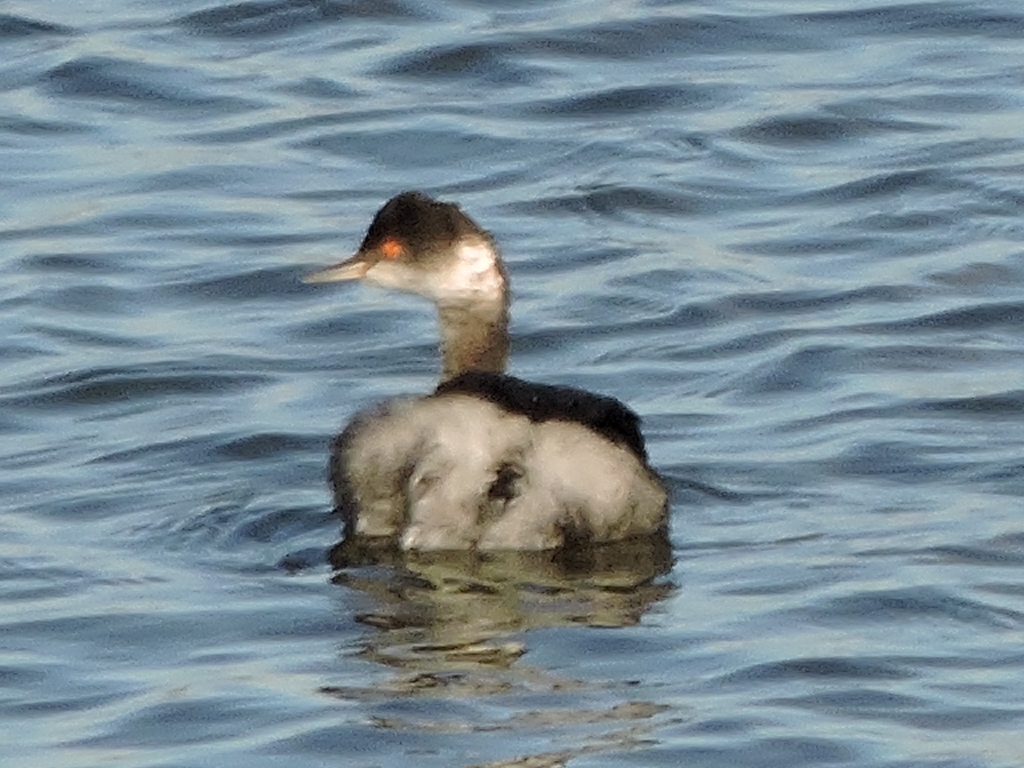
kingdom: Animalia
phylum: Chordata
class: Aves
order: Podicipediformes
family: Podicipedidae
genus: Podiceps
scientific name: Podiceps nigricollis
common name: Black-necked grebe
